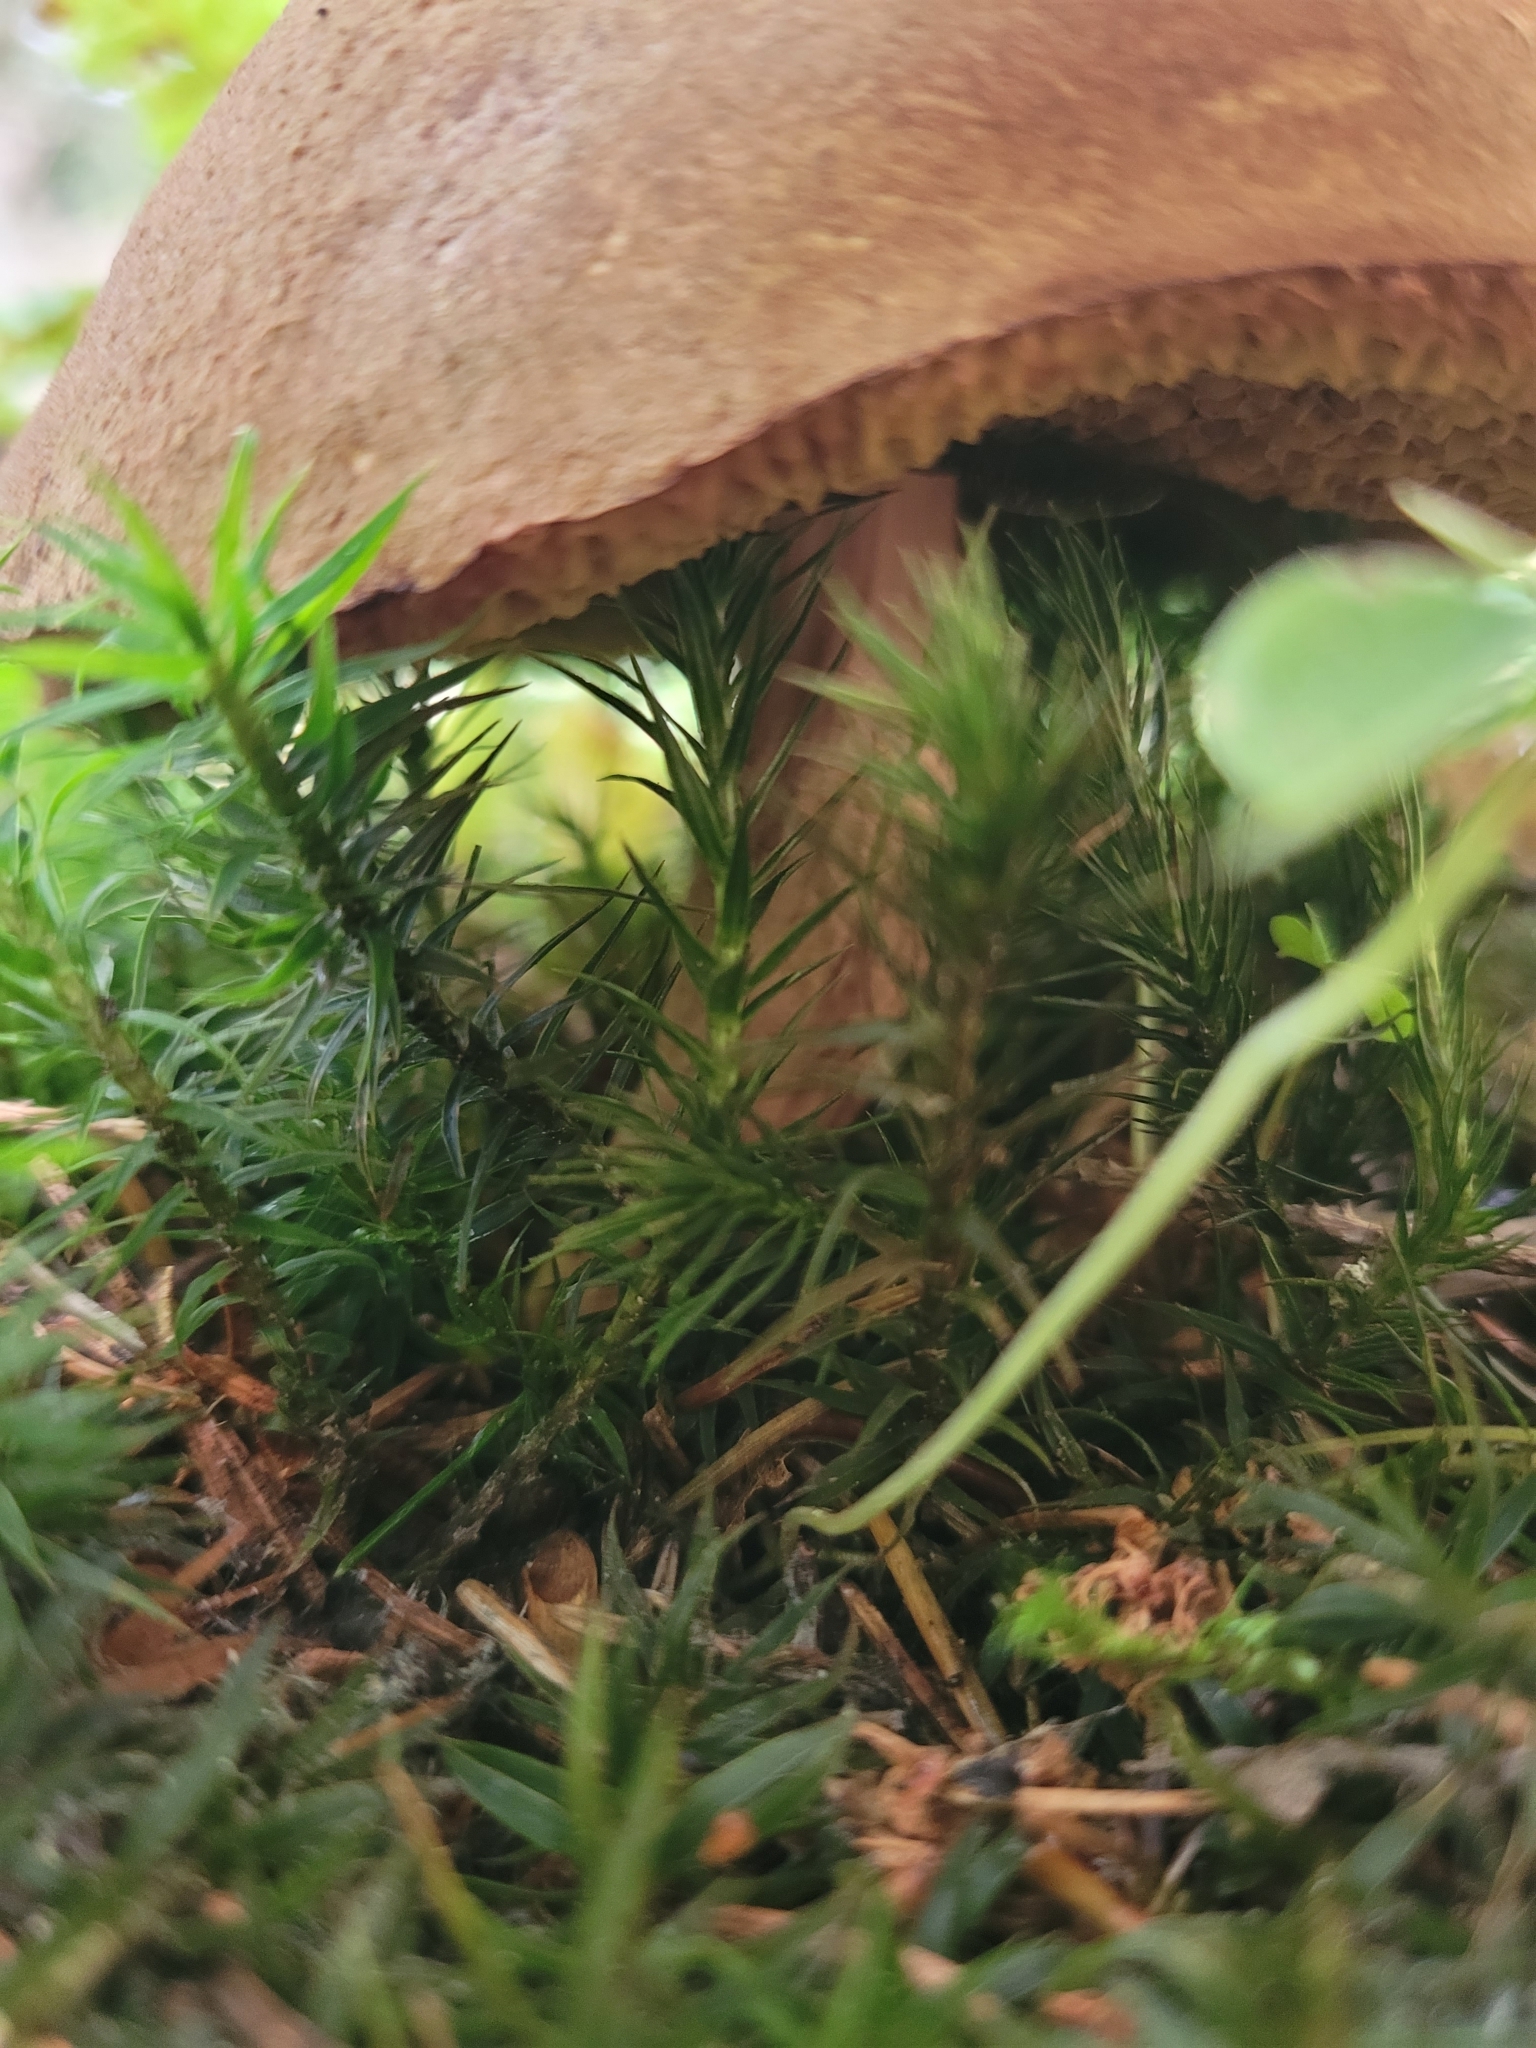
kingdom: Fungi
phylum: Basidiomycota
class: Agaricomycetes
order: Boletales
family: Boletaceae
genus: Imleria
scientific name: Imleria badia
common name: Bay bolete
